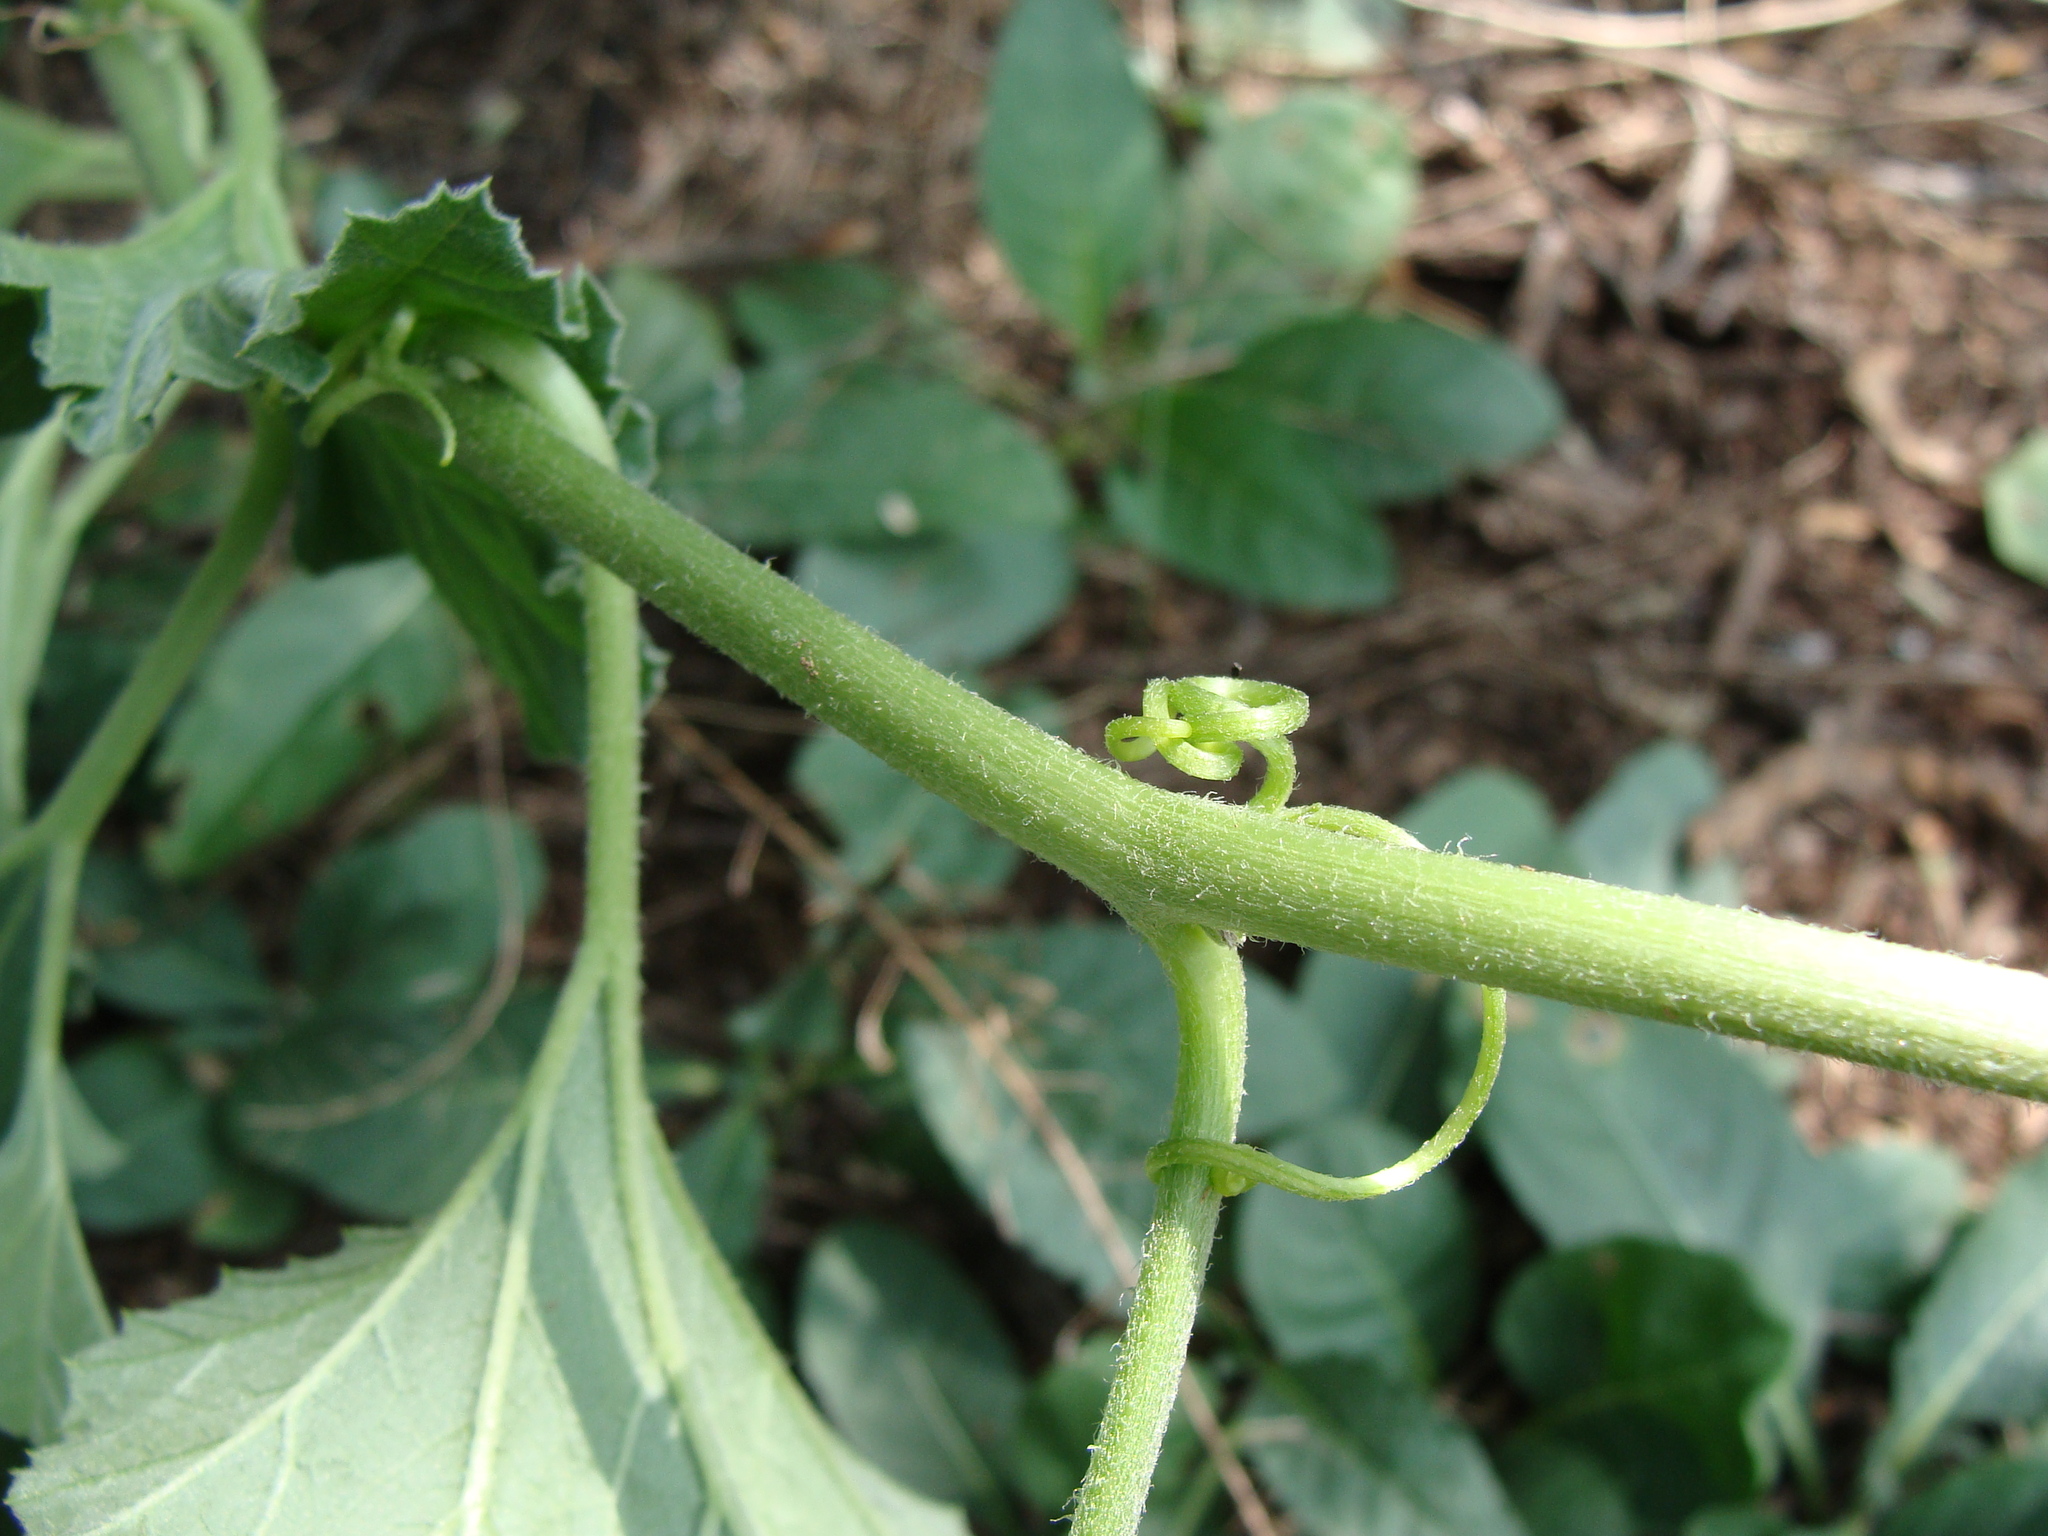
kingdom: Plantae
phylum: Tracheophyta
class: Magnoliopsida
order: Cucurbitales
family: Cucurbitaceae
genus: Apodanthera
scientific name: Apodanthera undulata
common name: Melon-loco
